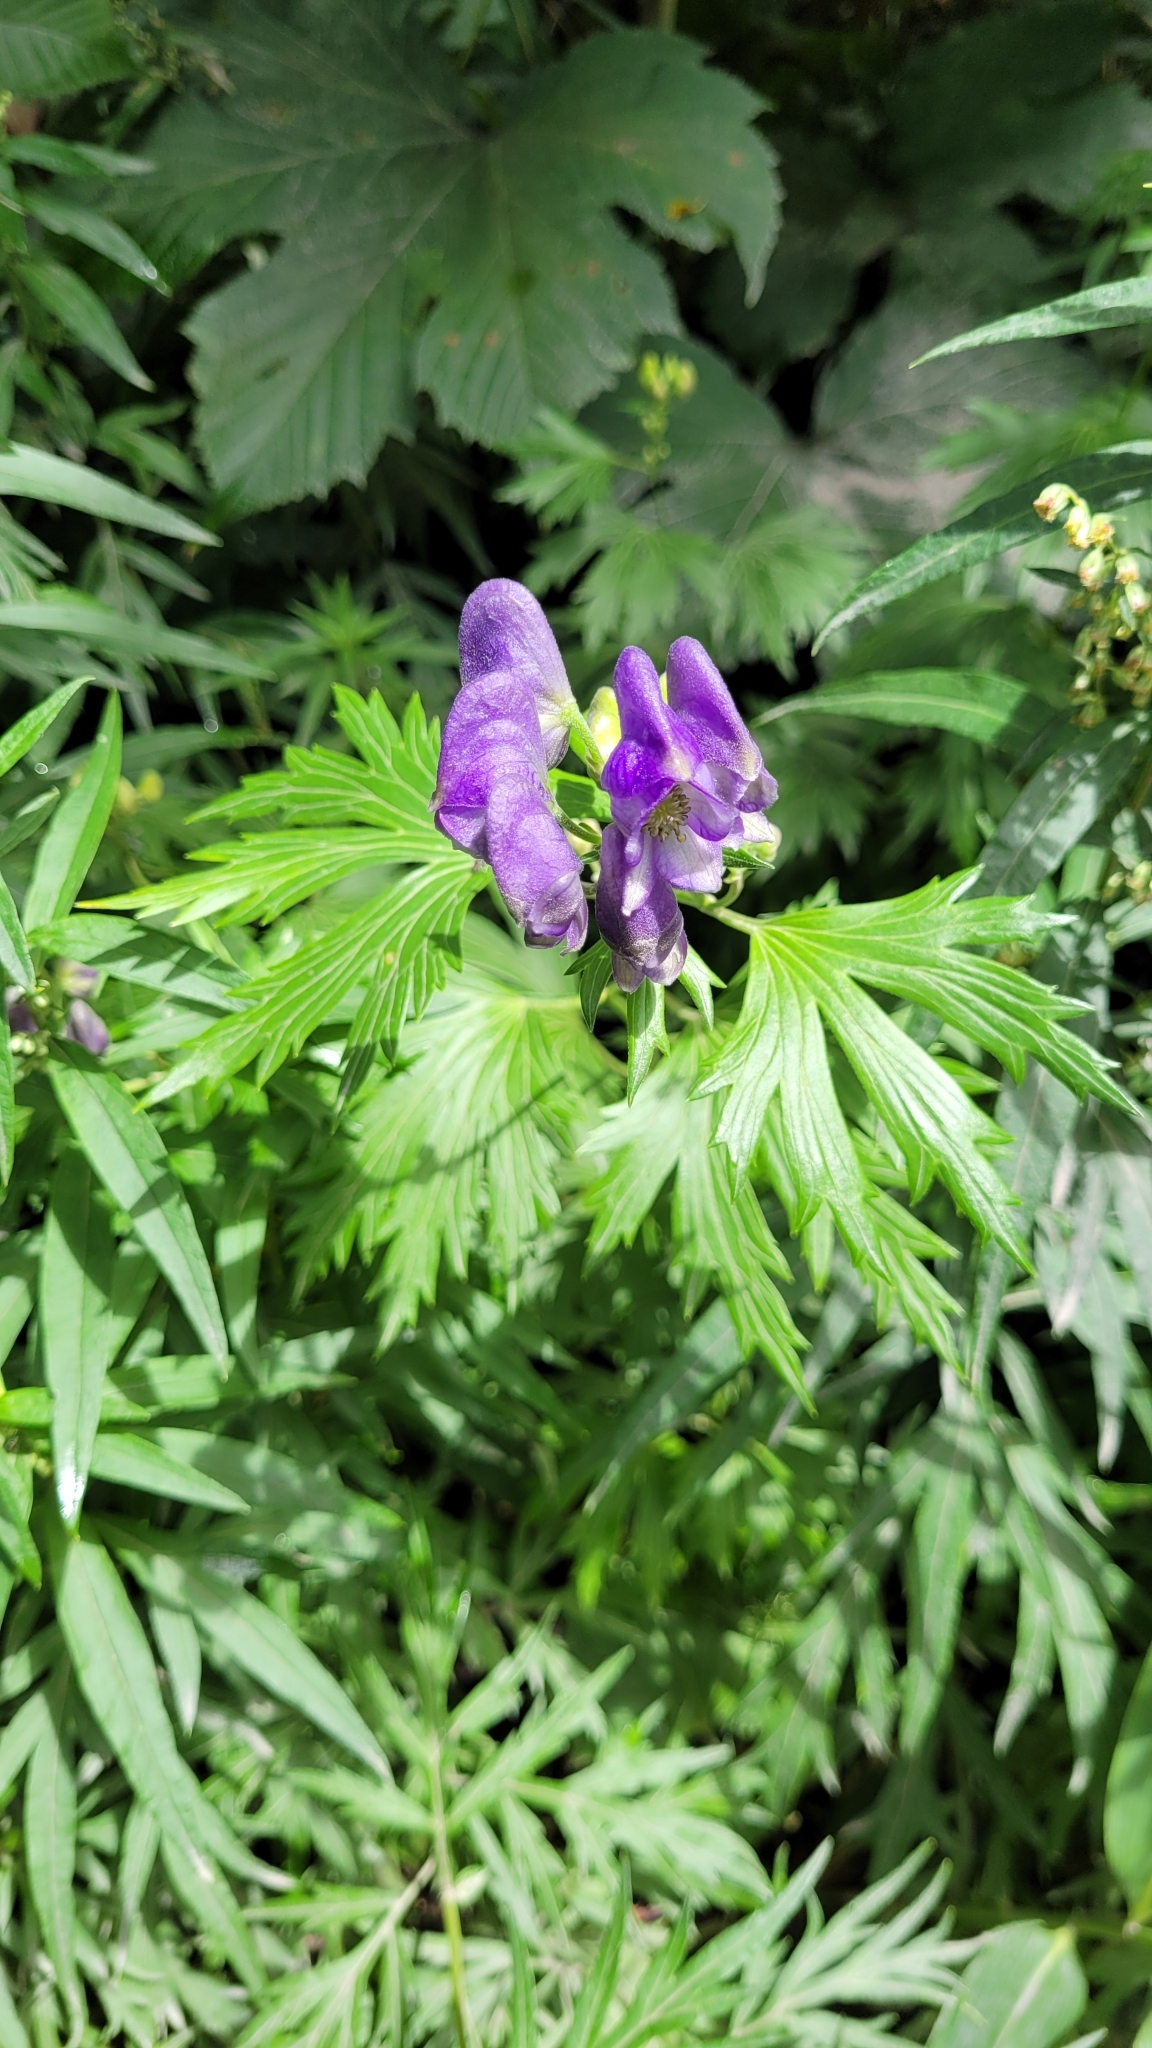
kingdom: Plantae
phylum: Tracheophyta
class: Magnoliopsida
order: Ranunculales
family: Ranunculaceae
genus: Aconitum
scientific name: Aconitum maximum
